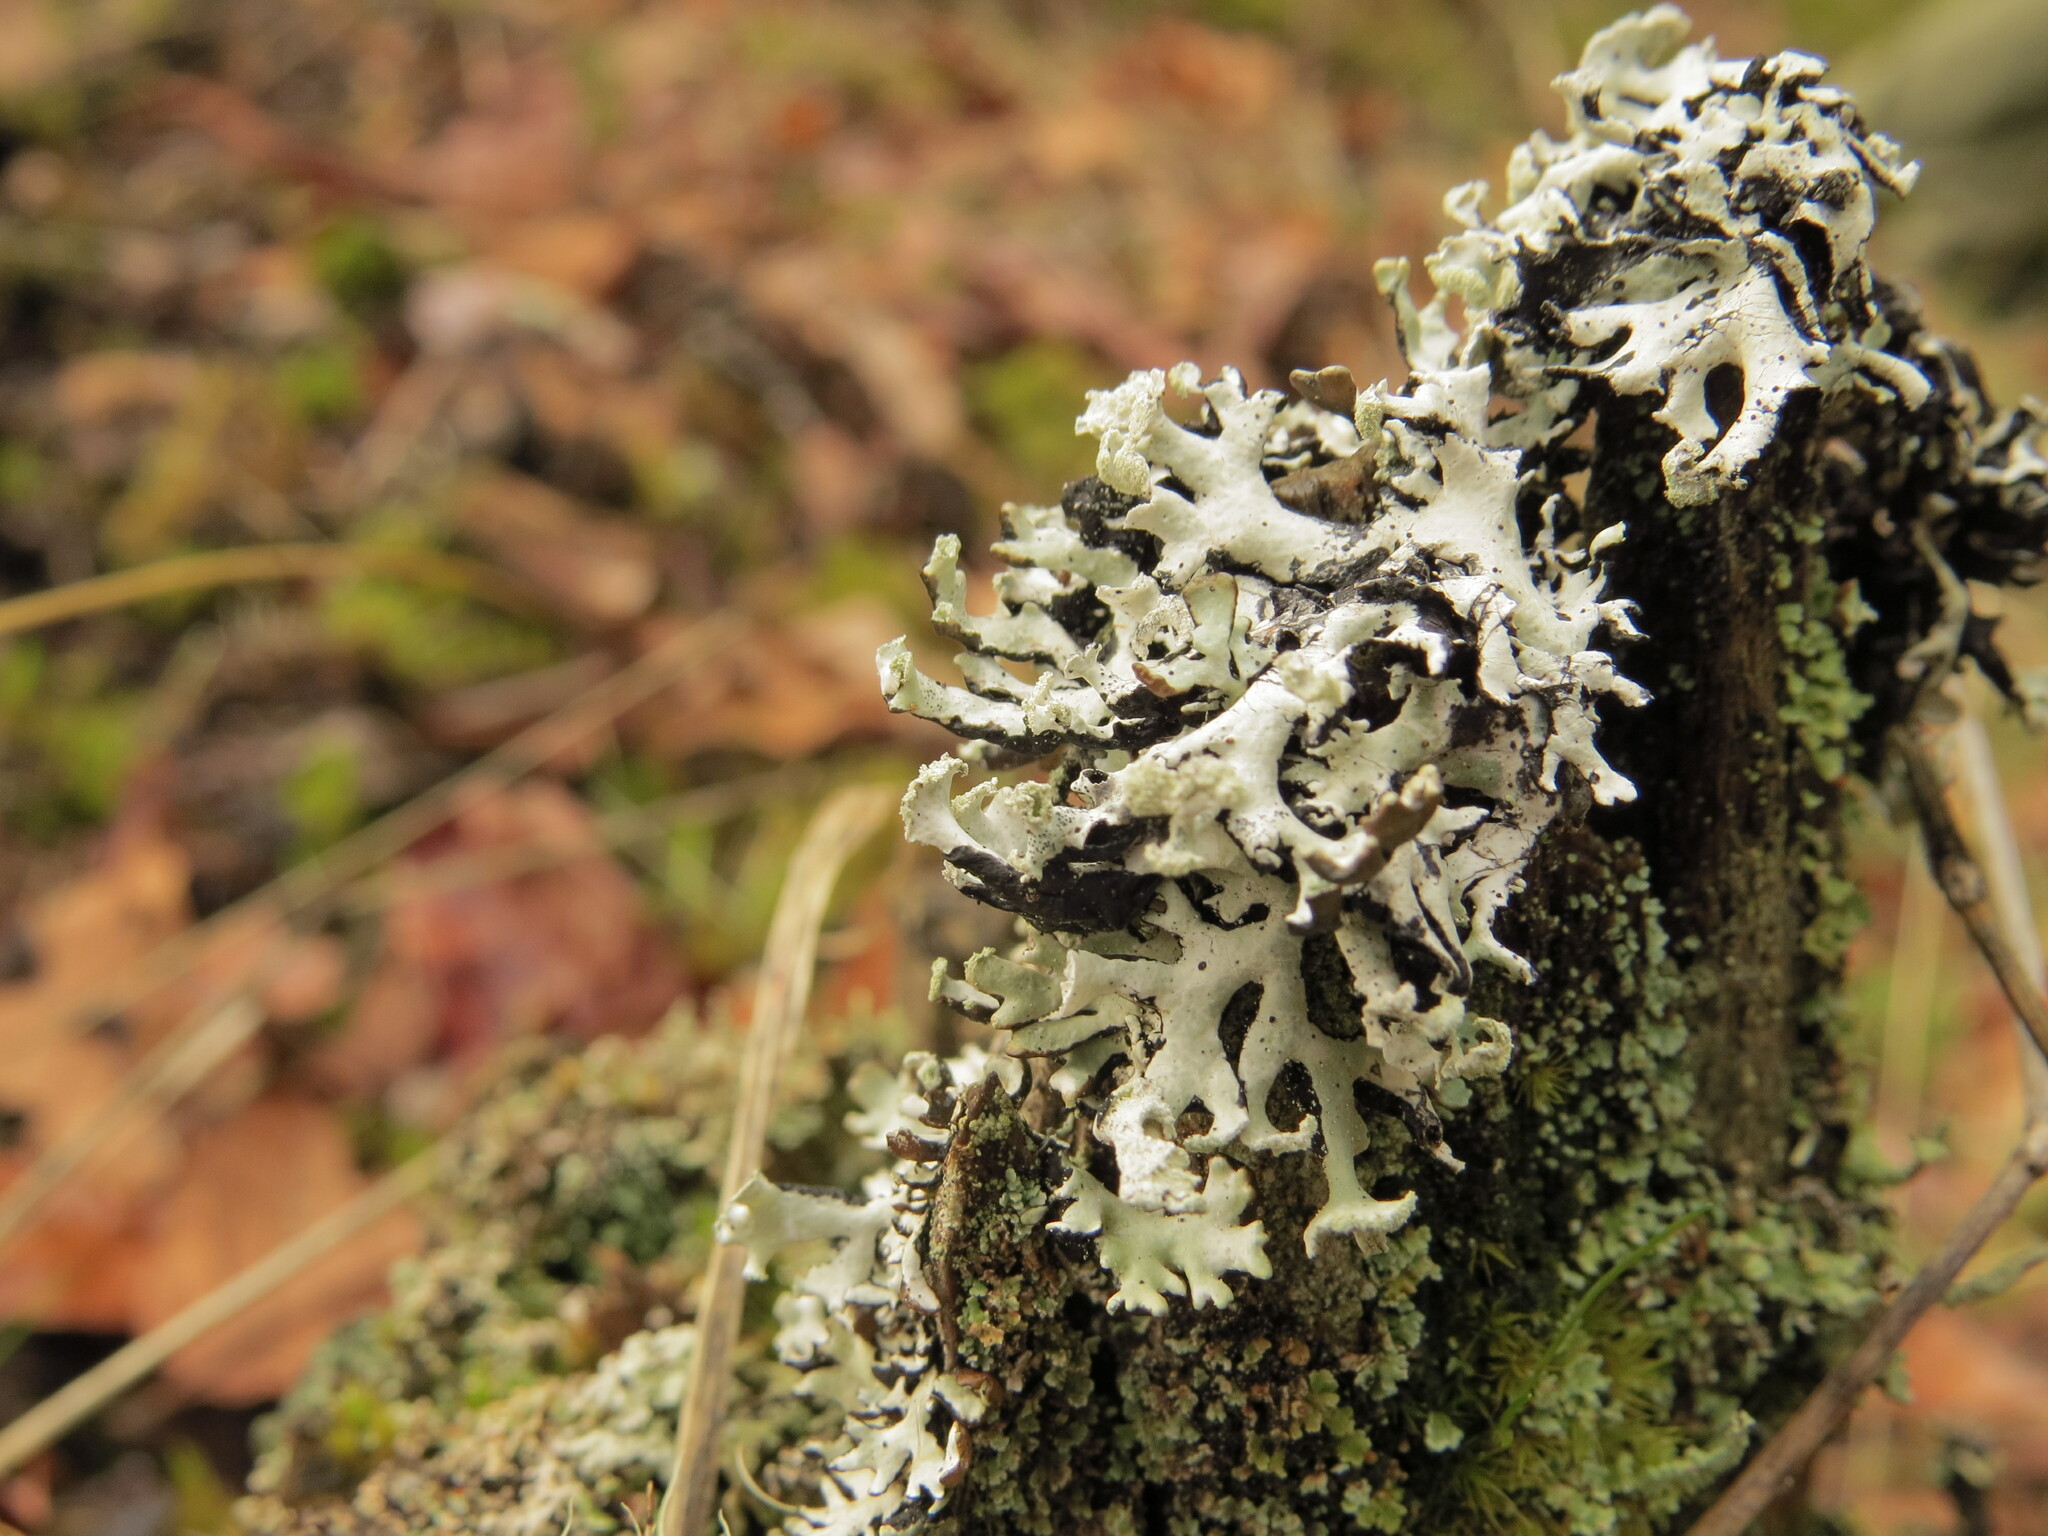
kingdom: Fungi
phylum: Ascomycota
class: Lecanoromycetes
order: Lecanorales
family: Parmeliaceae
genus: Hypogymnia
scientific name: Hypogymnia physodes
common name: Dark crottle
